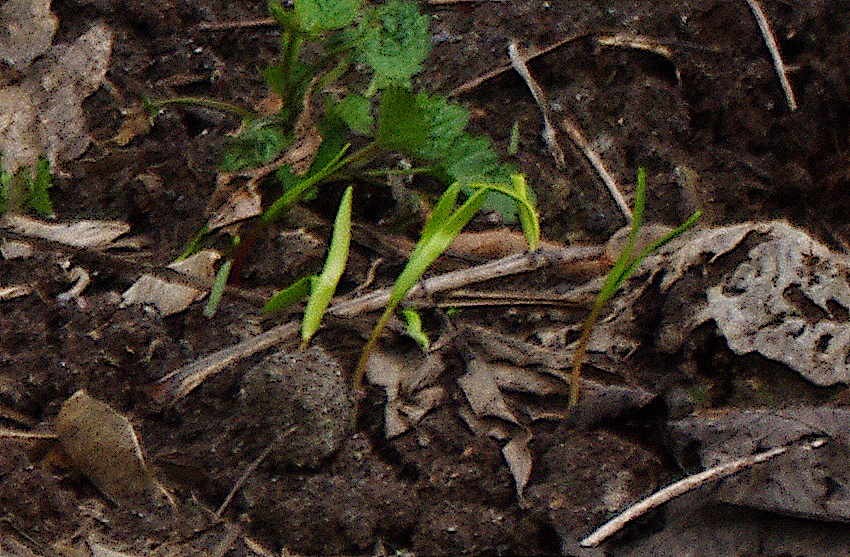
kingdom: Plantae
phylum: Tracheophyta
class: Magnoliopsida
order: Sapindales
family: Sapindaceae
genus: Acer
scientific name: Acer negundo
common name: Ashleaf maple
